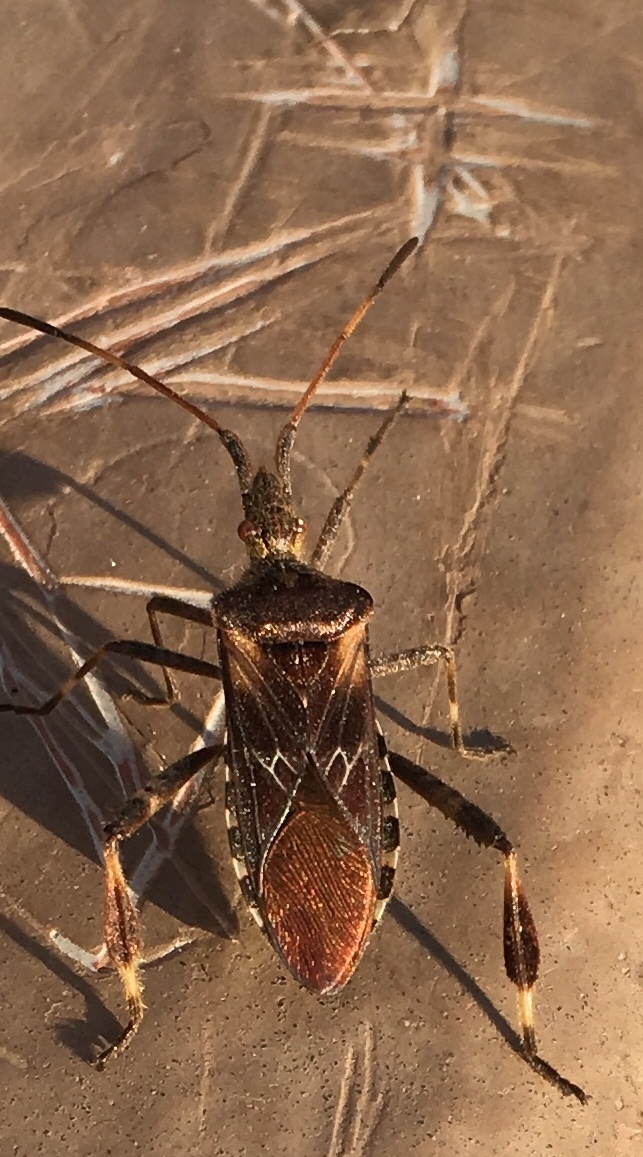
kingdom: Animalia
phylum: Arthropoda
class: Insecta
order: Hemiptera
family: Coreidae
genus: Leptoglossus
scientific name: Leptoglossus occidentalis
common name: Western conifer-seed bug
